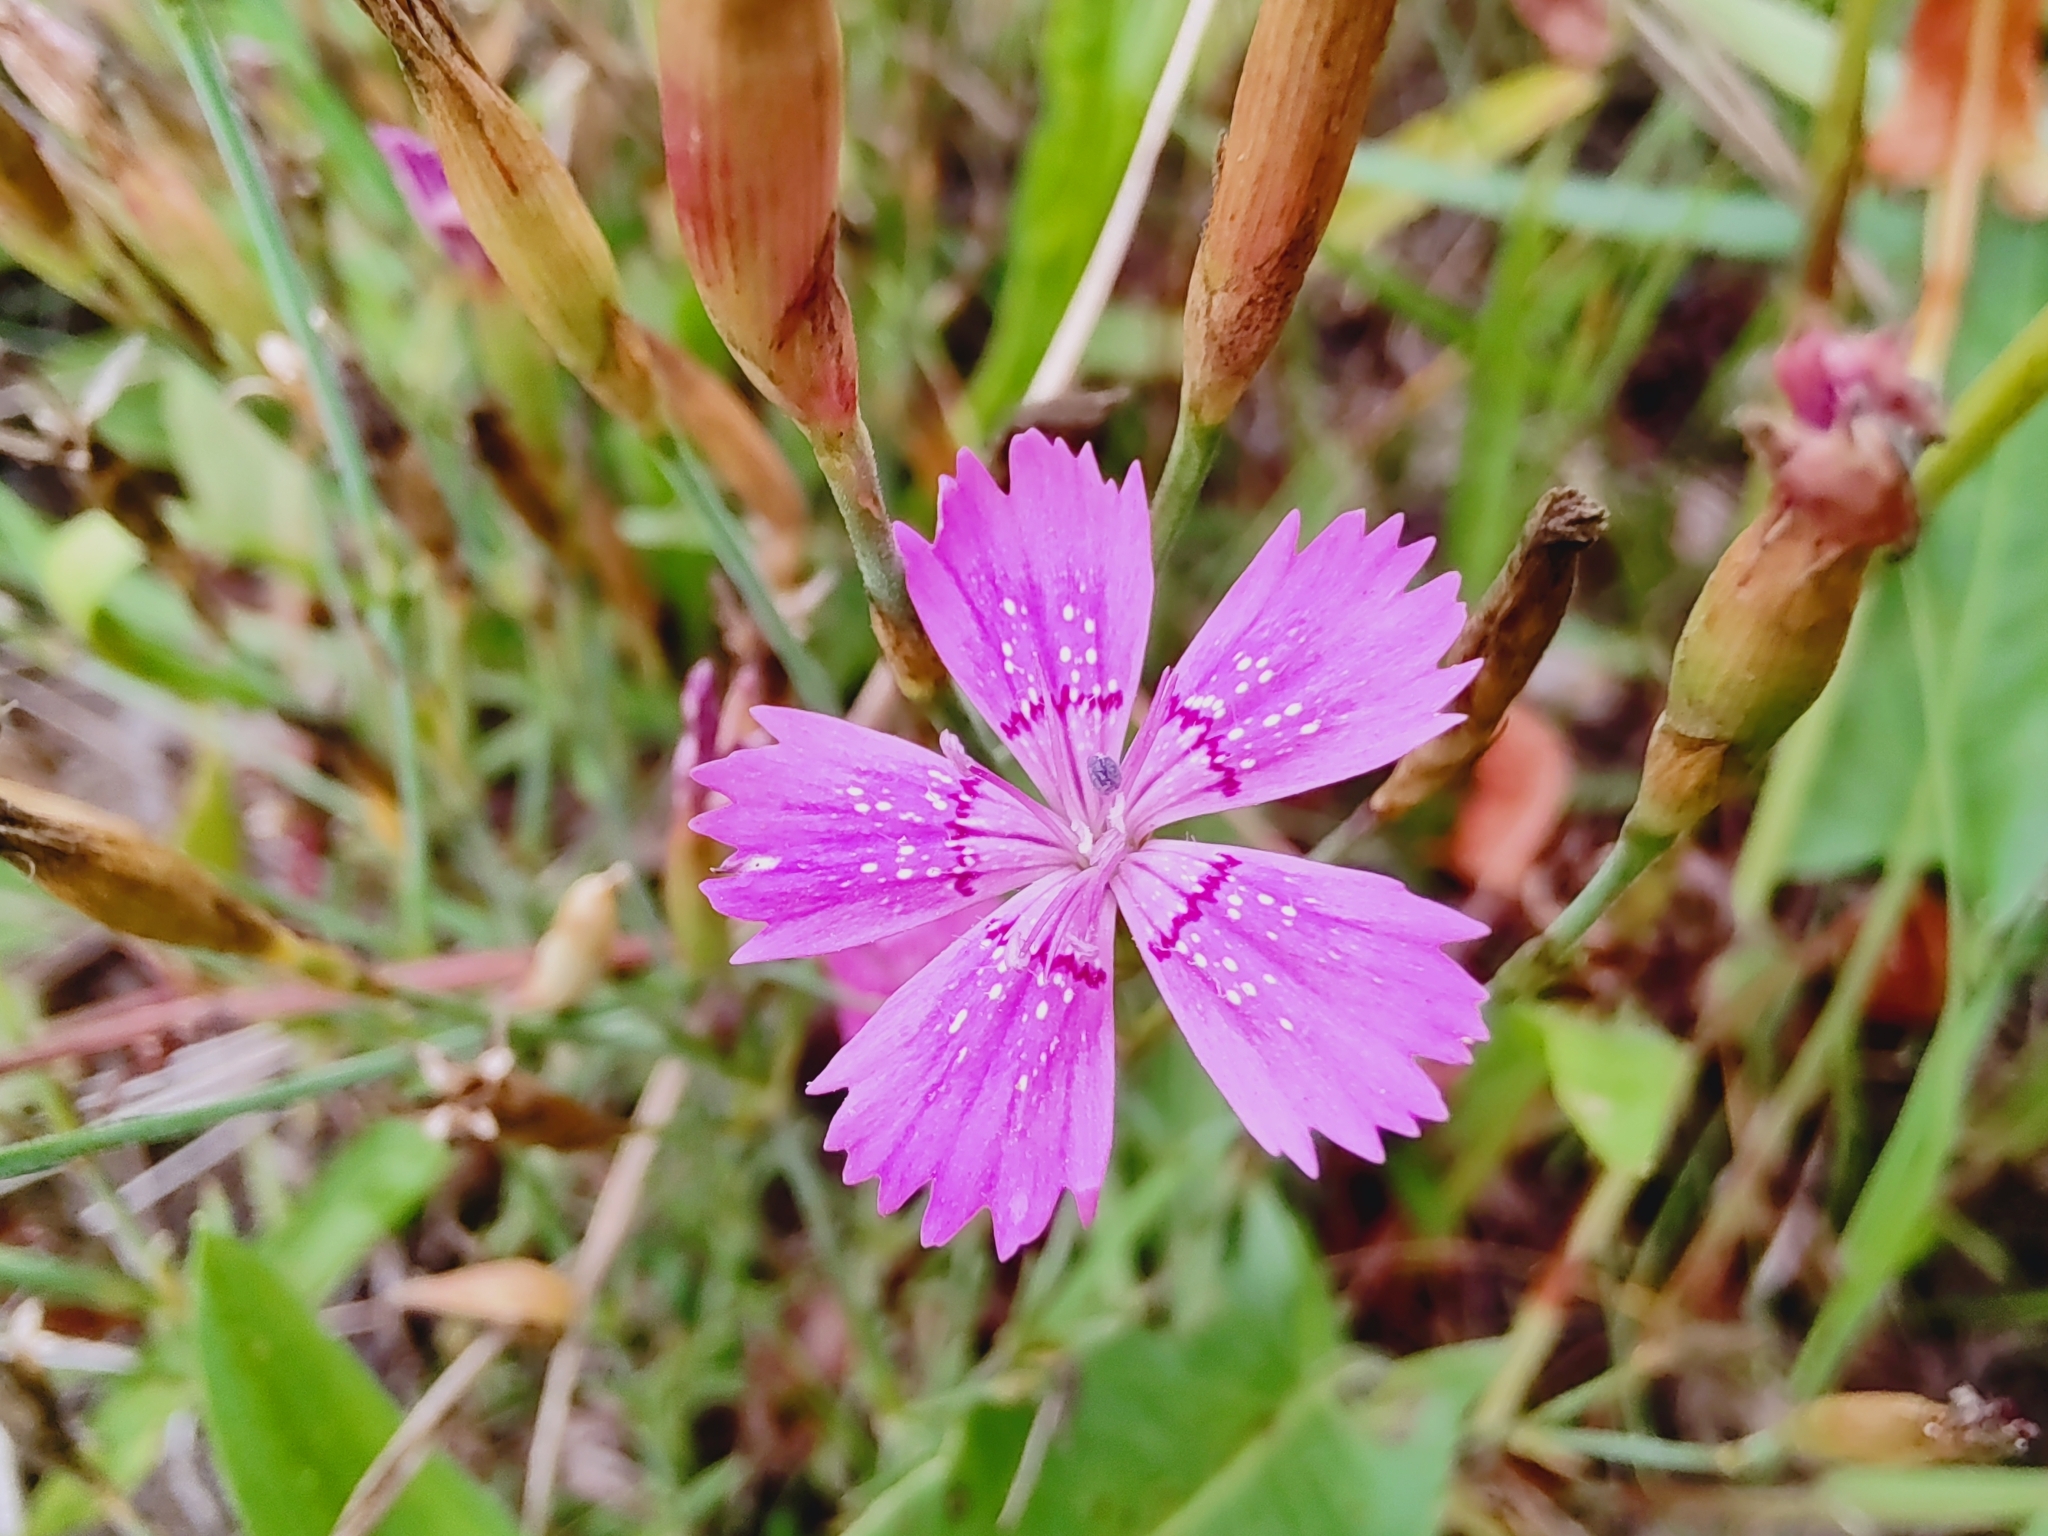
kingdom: Plantae
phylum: Tracheophyta
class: Magnoliopsida
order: Caryophyllales
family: Caryophyllaceae
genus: Dianthus
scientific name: Dianthus deltoides
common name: Maiden pink
